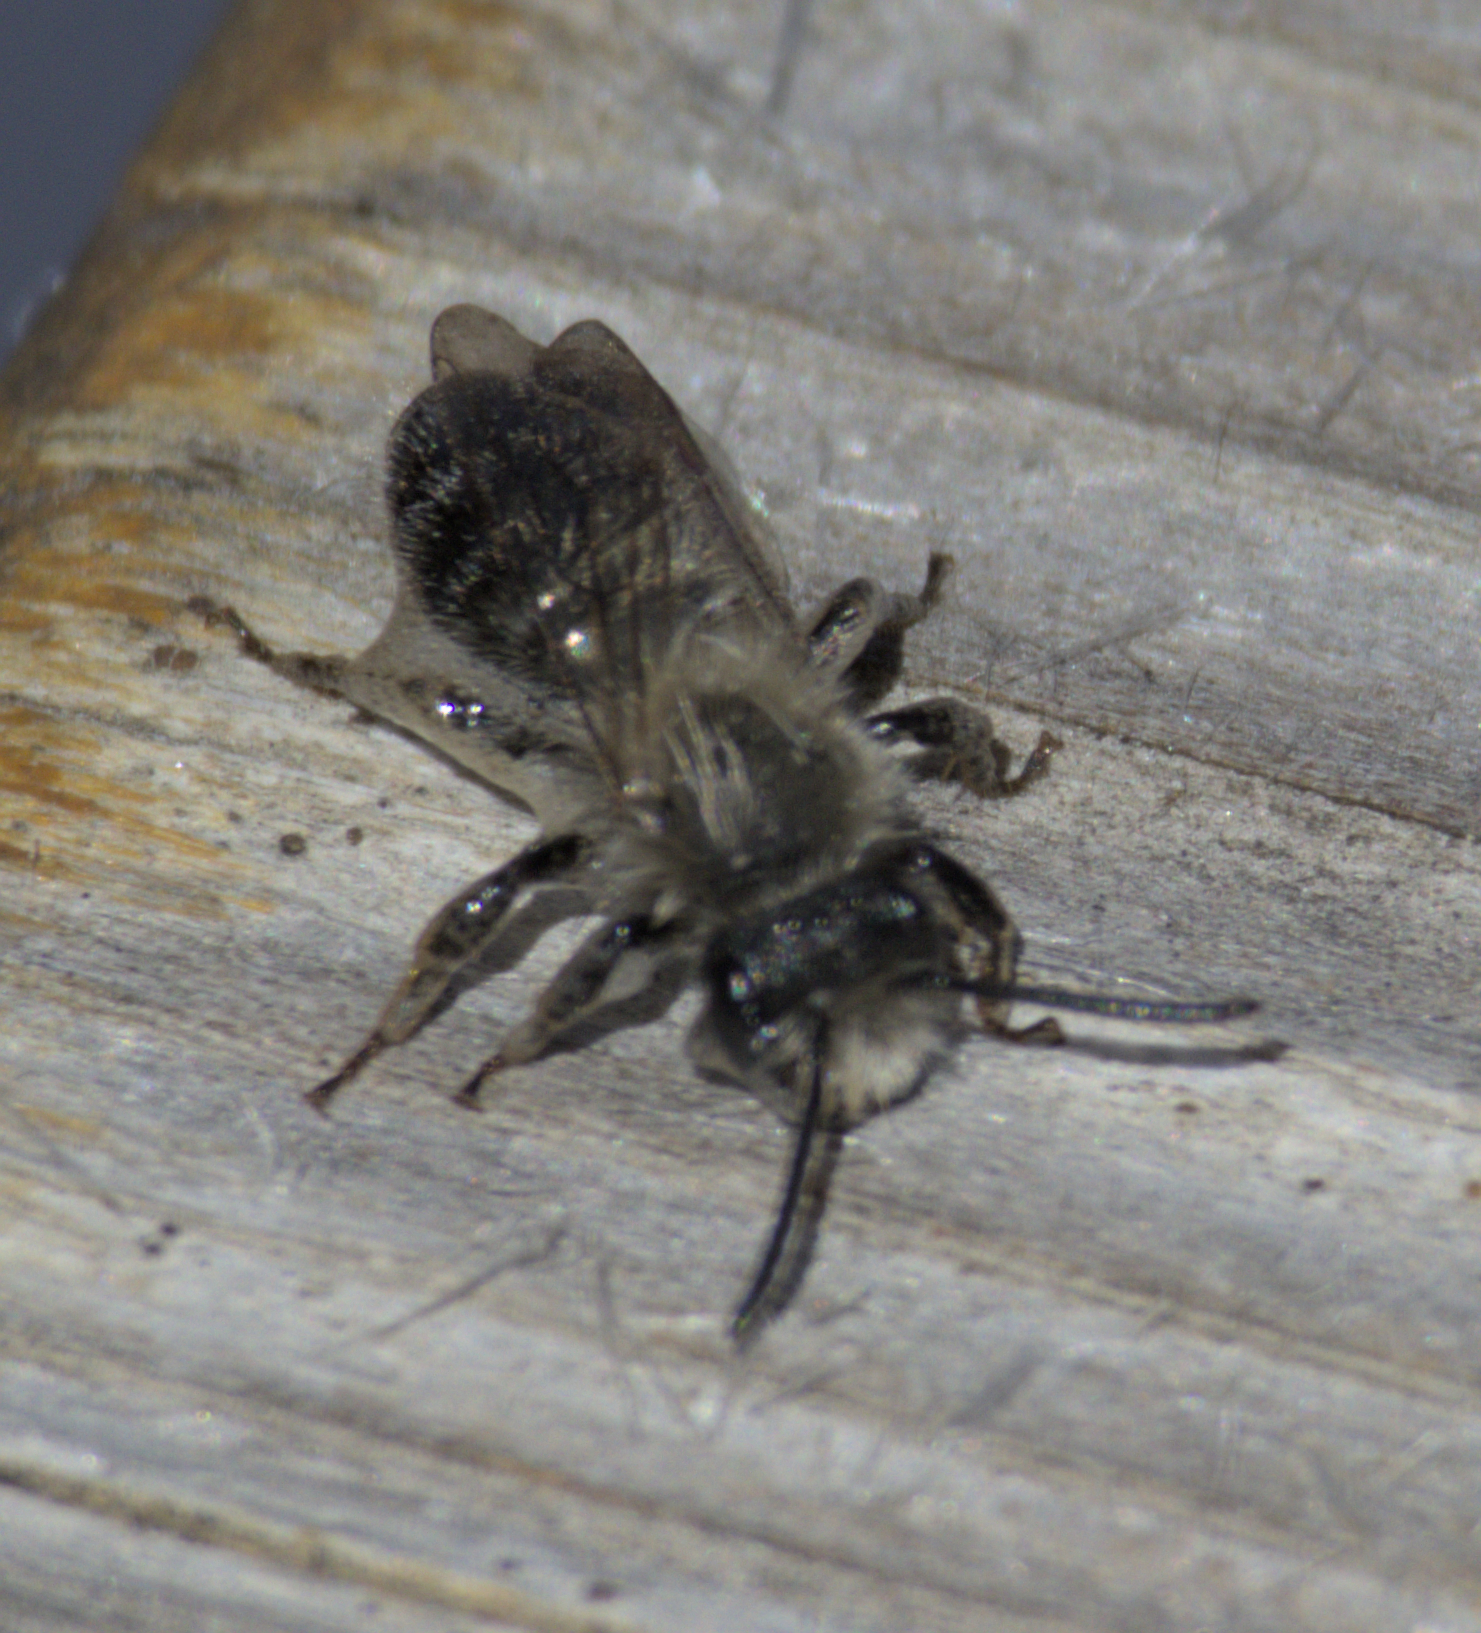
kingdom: Animalia
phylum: Arthropoda
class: Insecta
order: Hymenoptera
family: Andrenidae
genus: Andrena
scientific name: Andrena frigida
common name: Frigid mining bee
